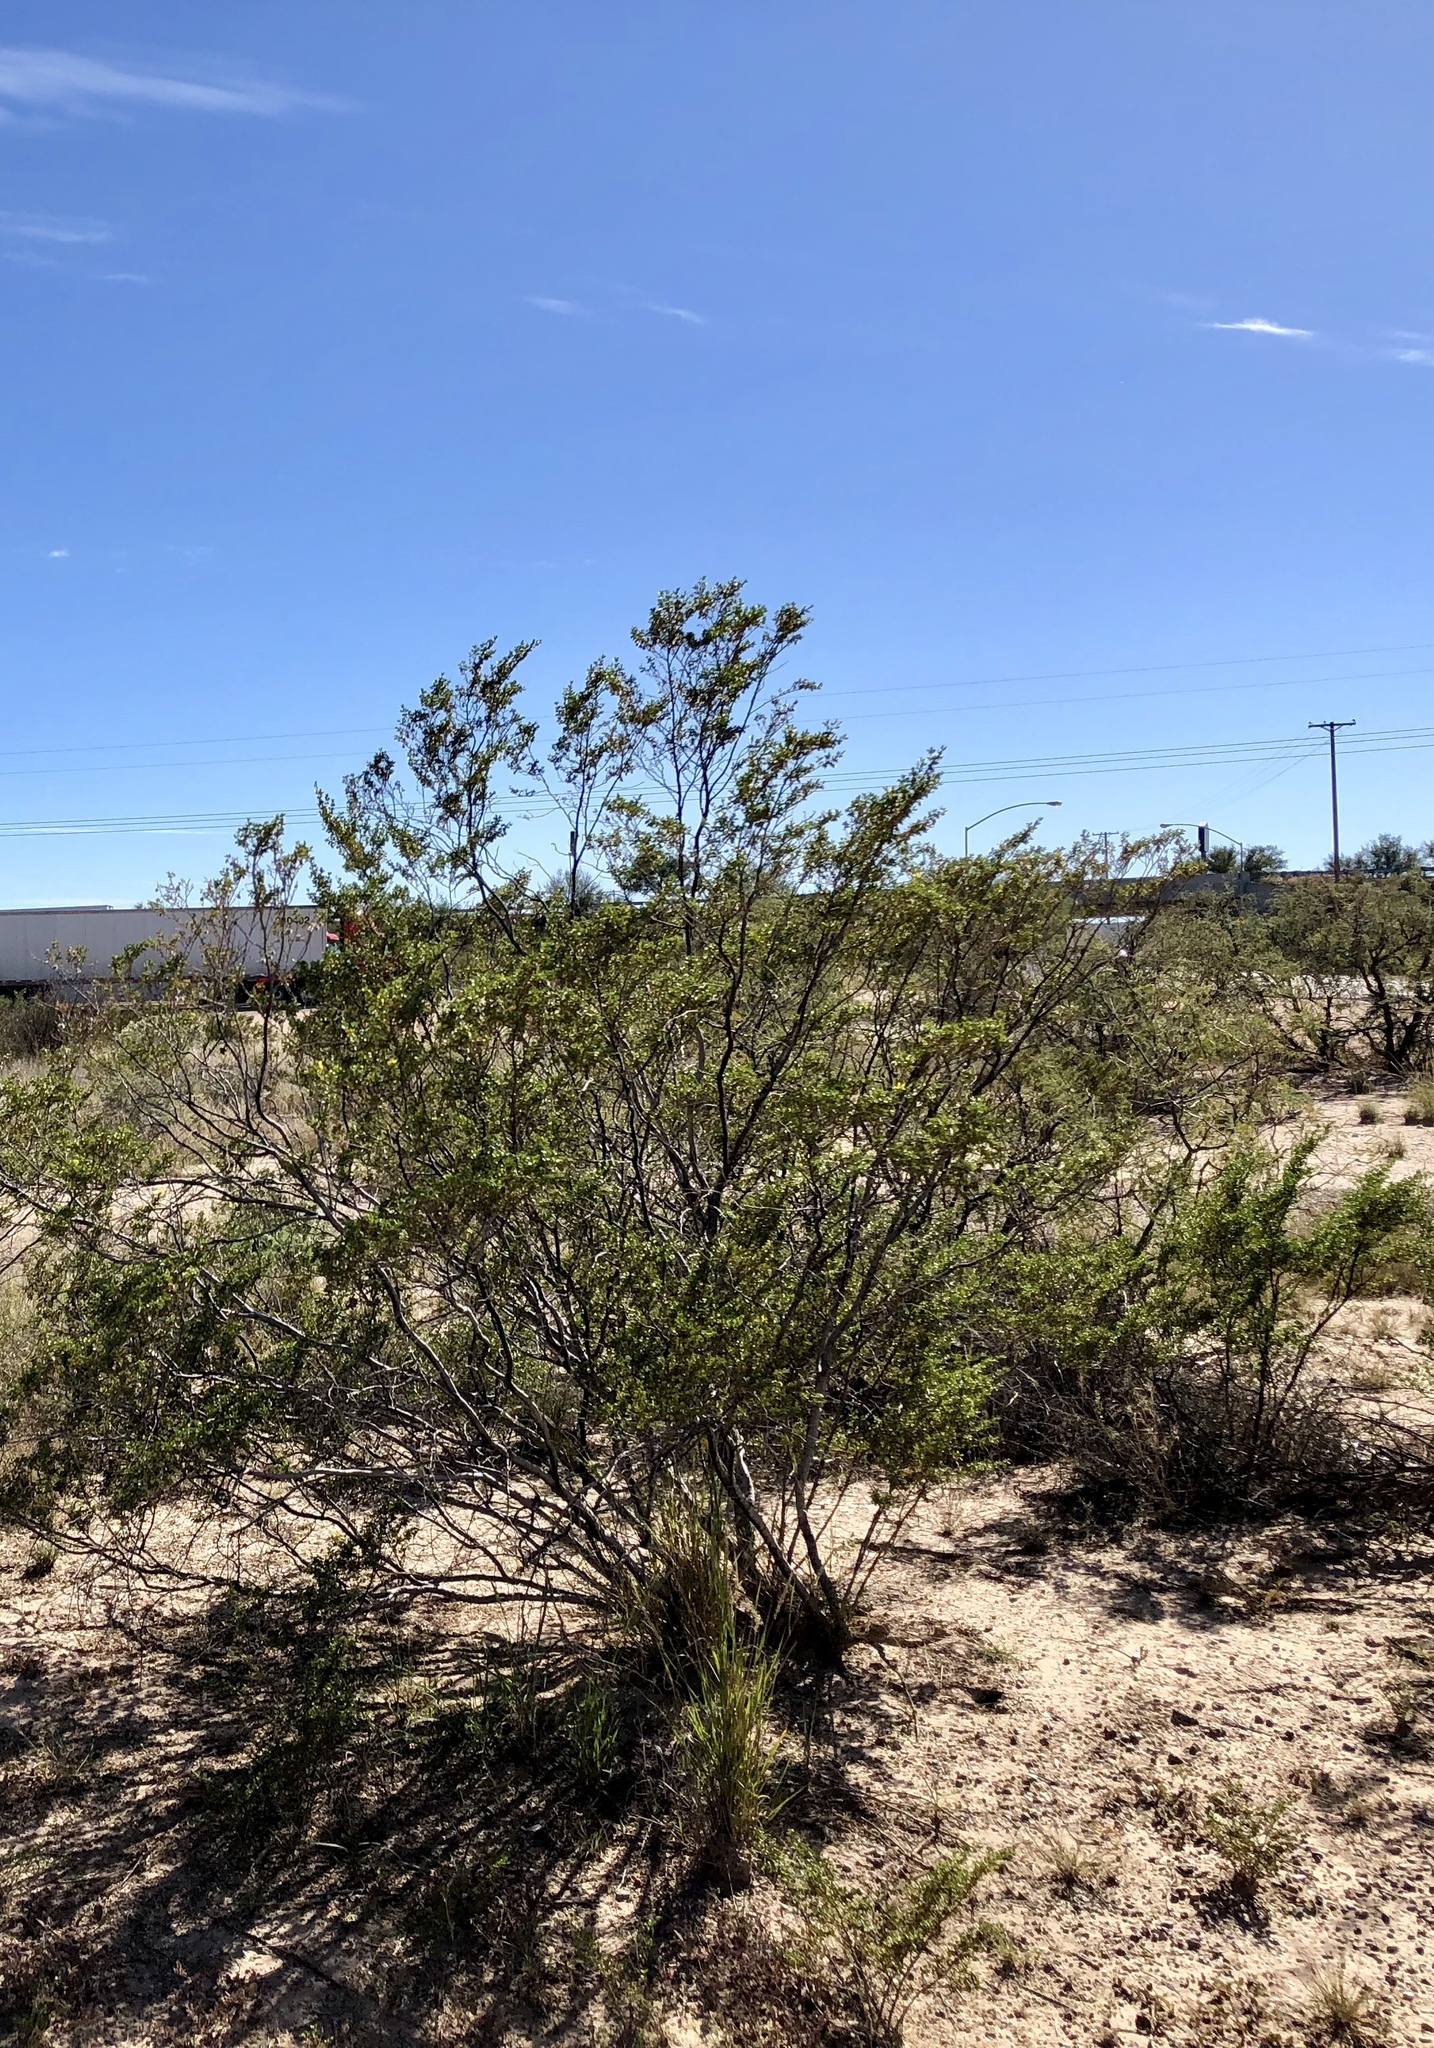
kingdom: Plantae
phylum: Tracheophyta
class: Magnoliopsida
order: Zygophyllales
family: Zygophyllaceae
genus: Larrea
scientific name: Larrea tridentata
